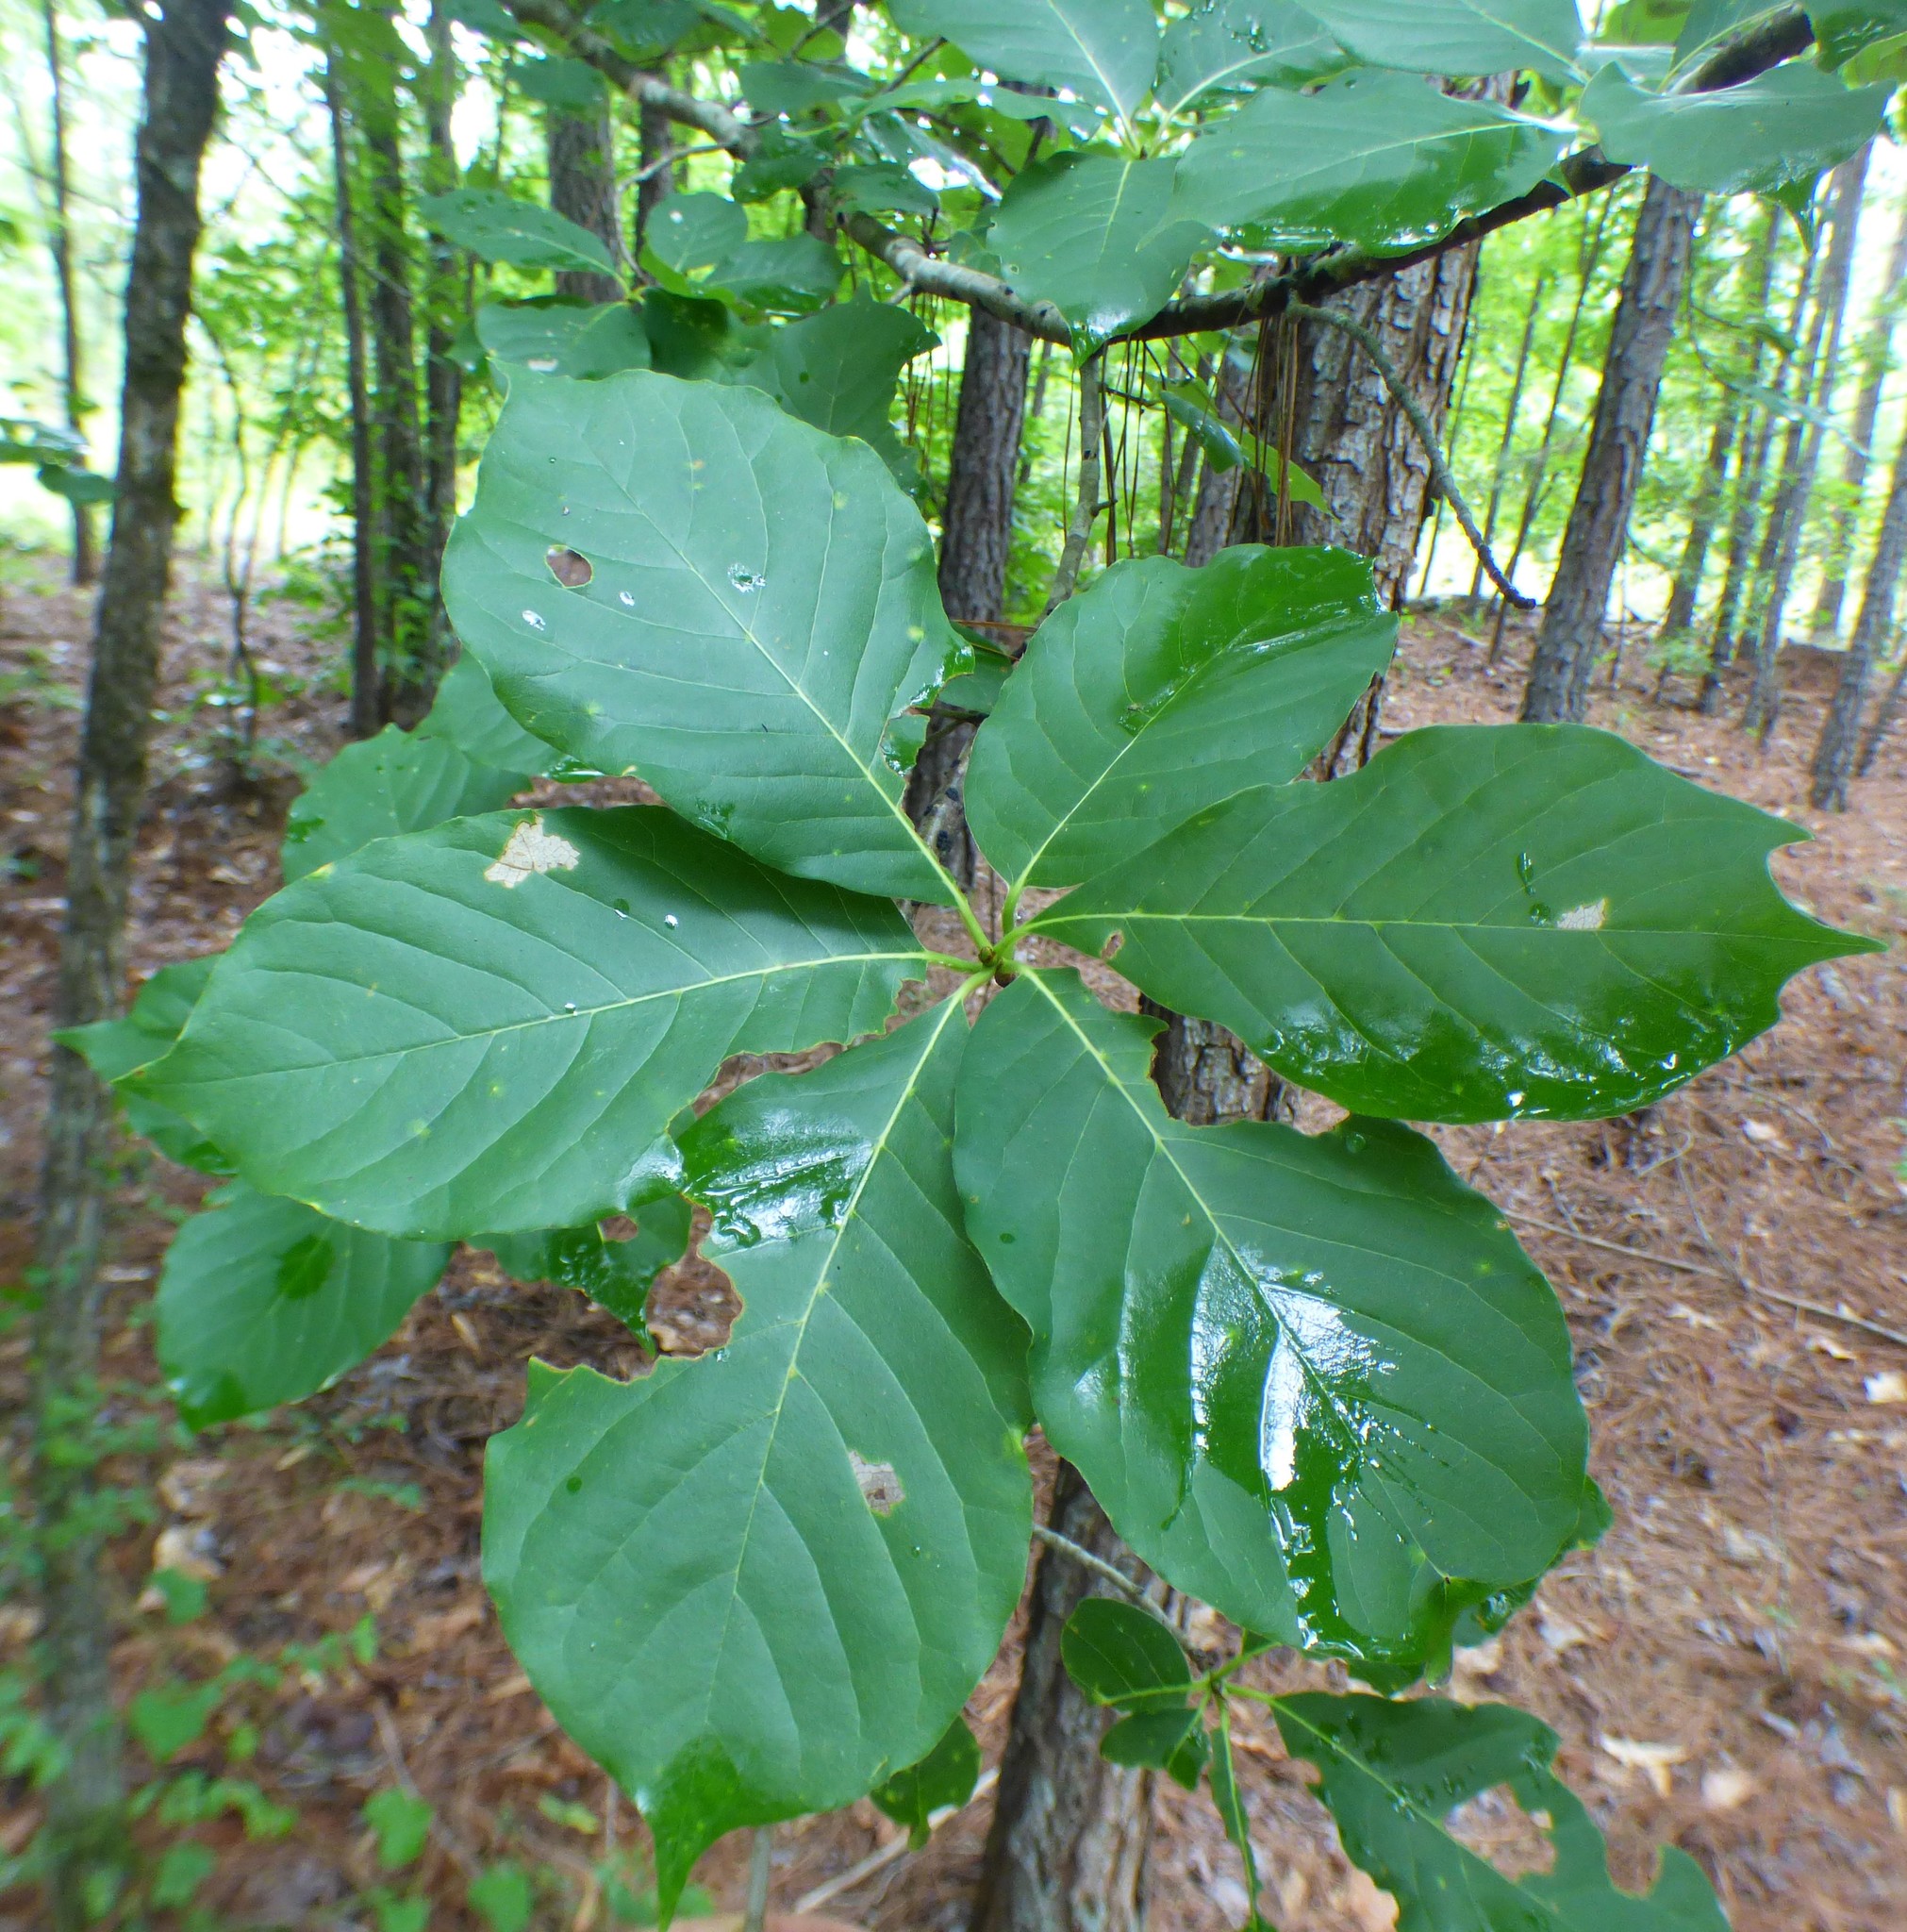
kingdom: Plantae
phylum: Tracheophyta
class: Magnoliopsida
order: Cornales
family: Nyssaceae
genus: Nyssa
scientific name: Nyssa sylvatica
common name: Black tupelo
